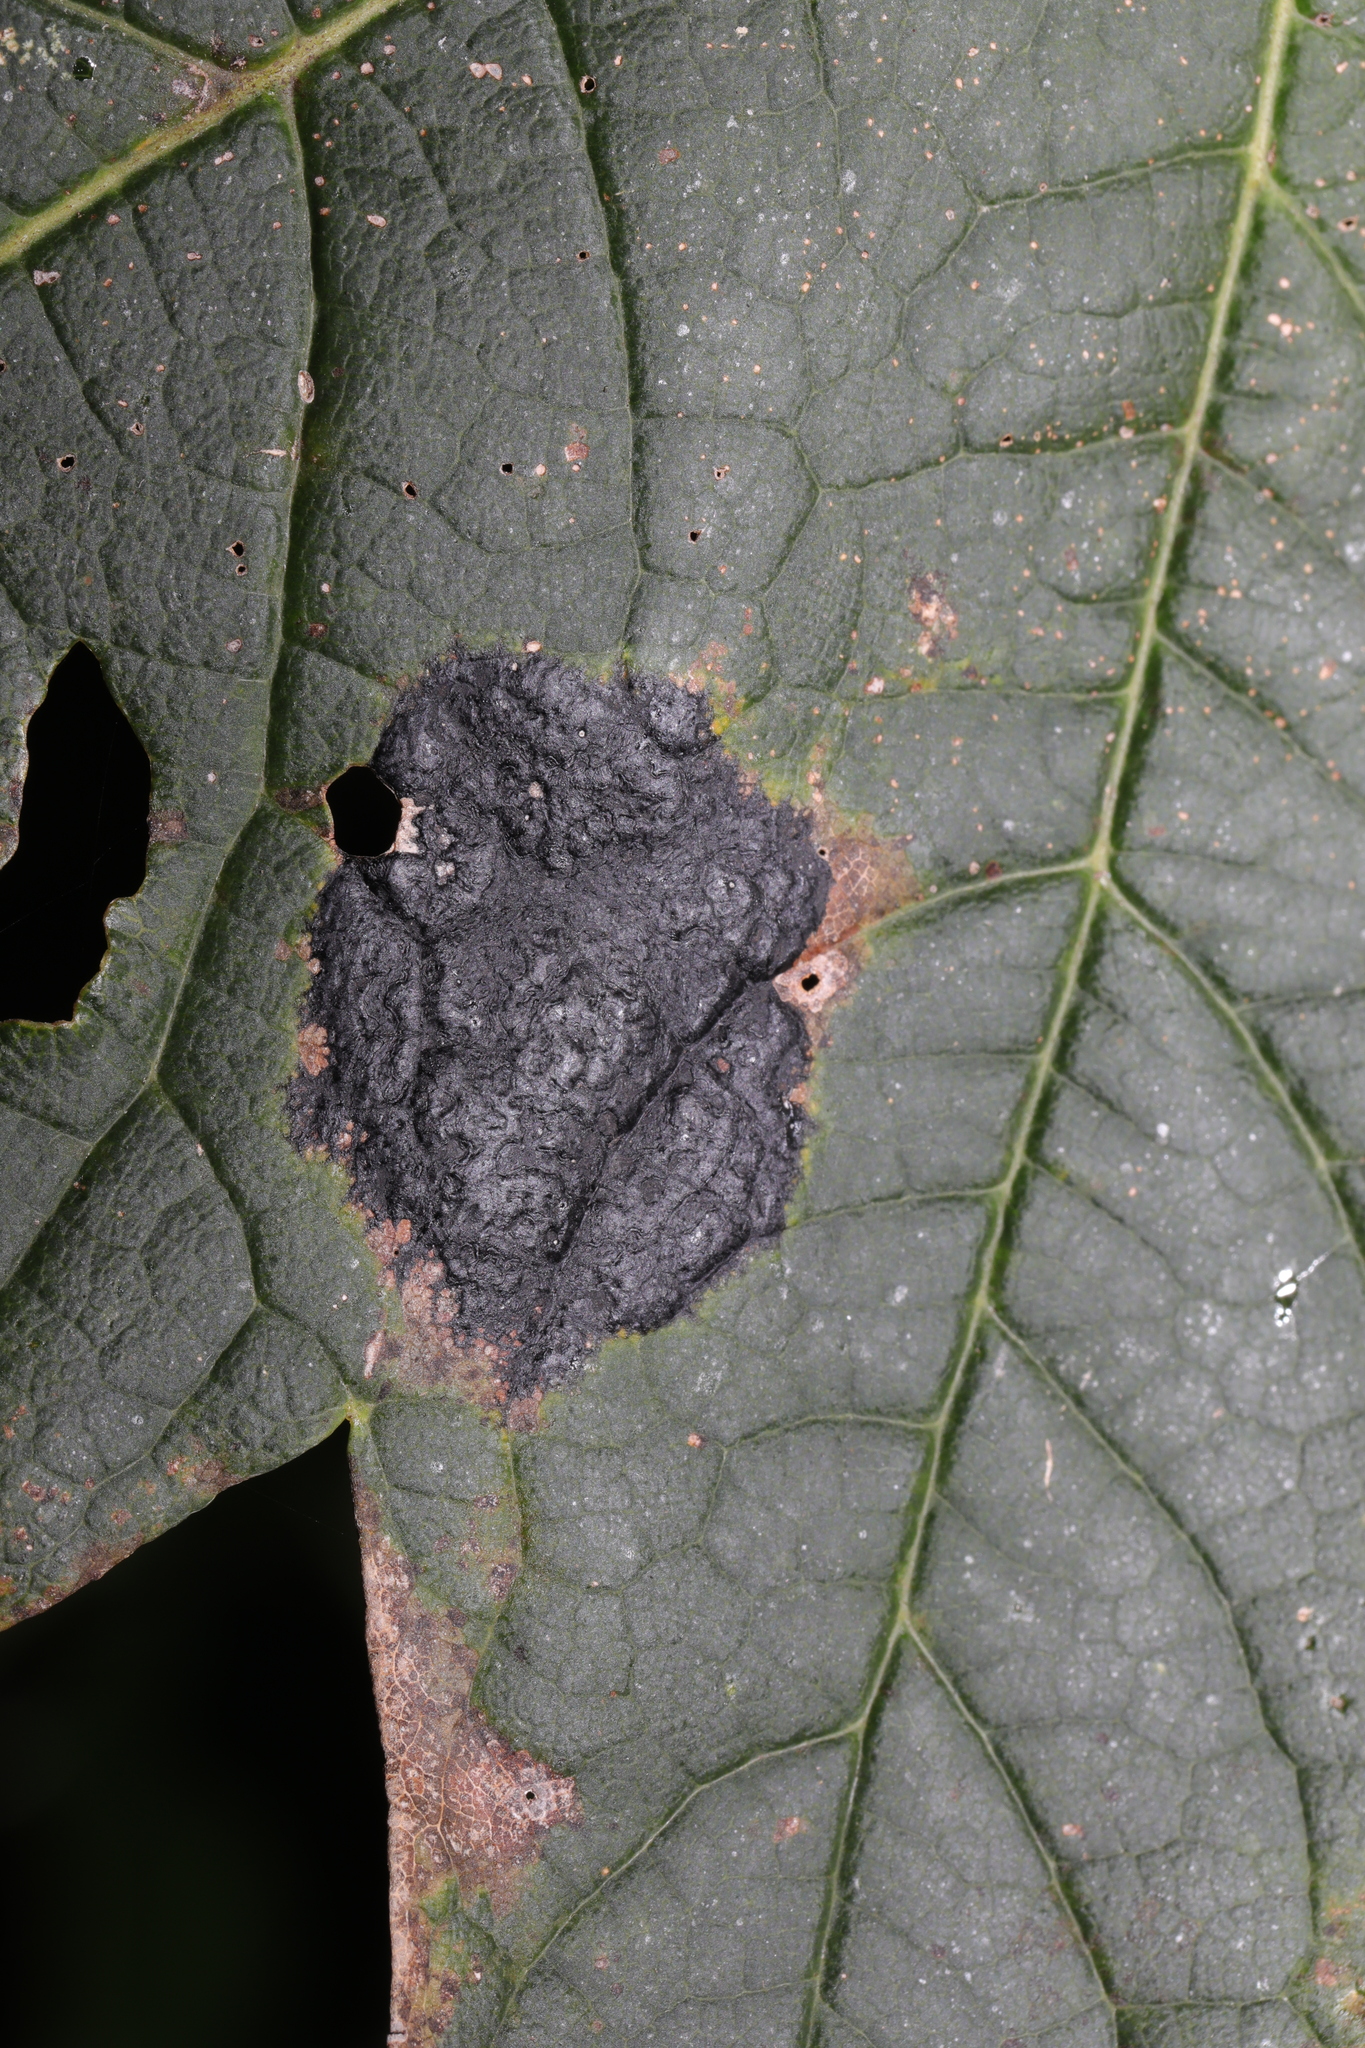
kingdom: Fungi
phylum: Ascomycota
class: Leotiomycetes
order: Rhytismatales
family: Rhytismataceae
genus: Rhytisma
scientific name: Rhytisma acerinum
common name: European tar spot
